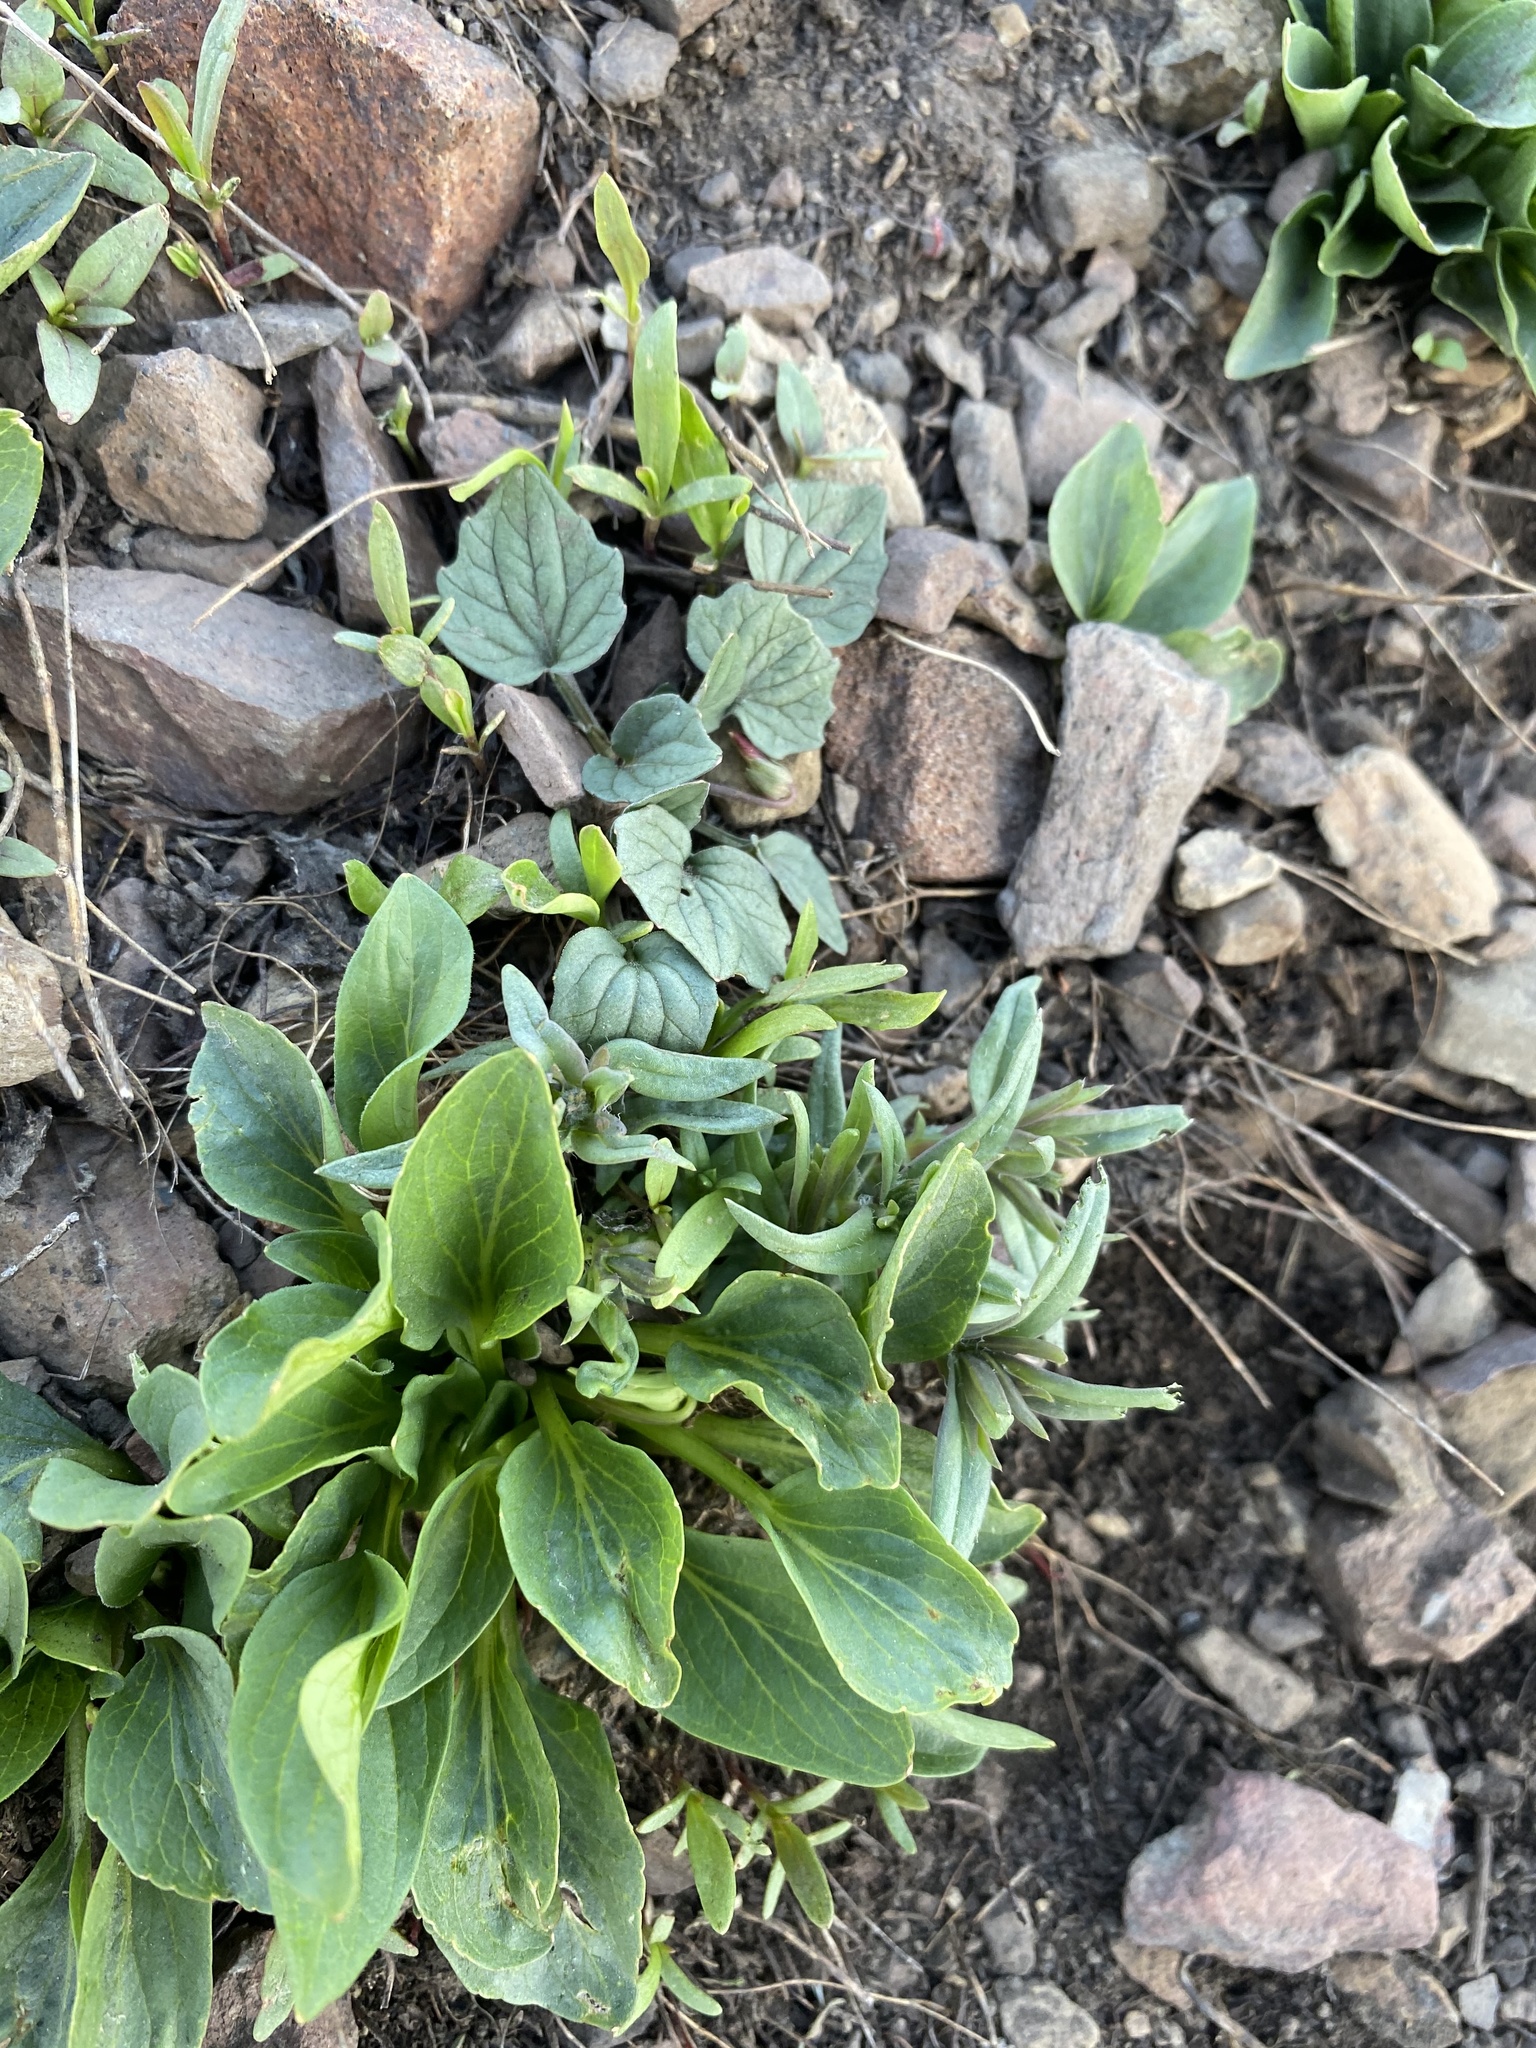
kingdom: Plantae
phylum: Tracheophyta
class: Magnoliopsida
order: Malpighiales
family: Violaceae
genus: Viola
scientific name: Viola purpurea
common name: Pine violet
